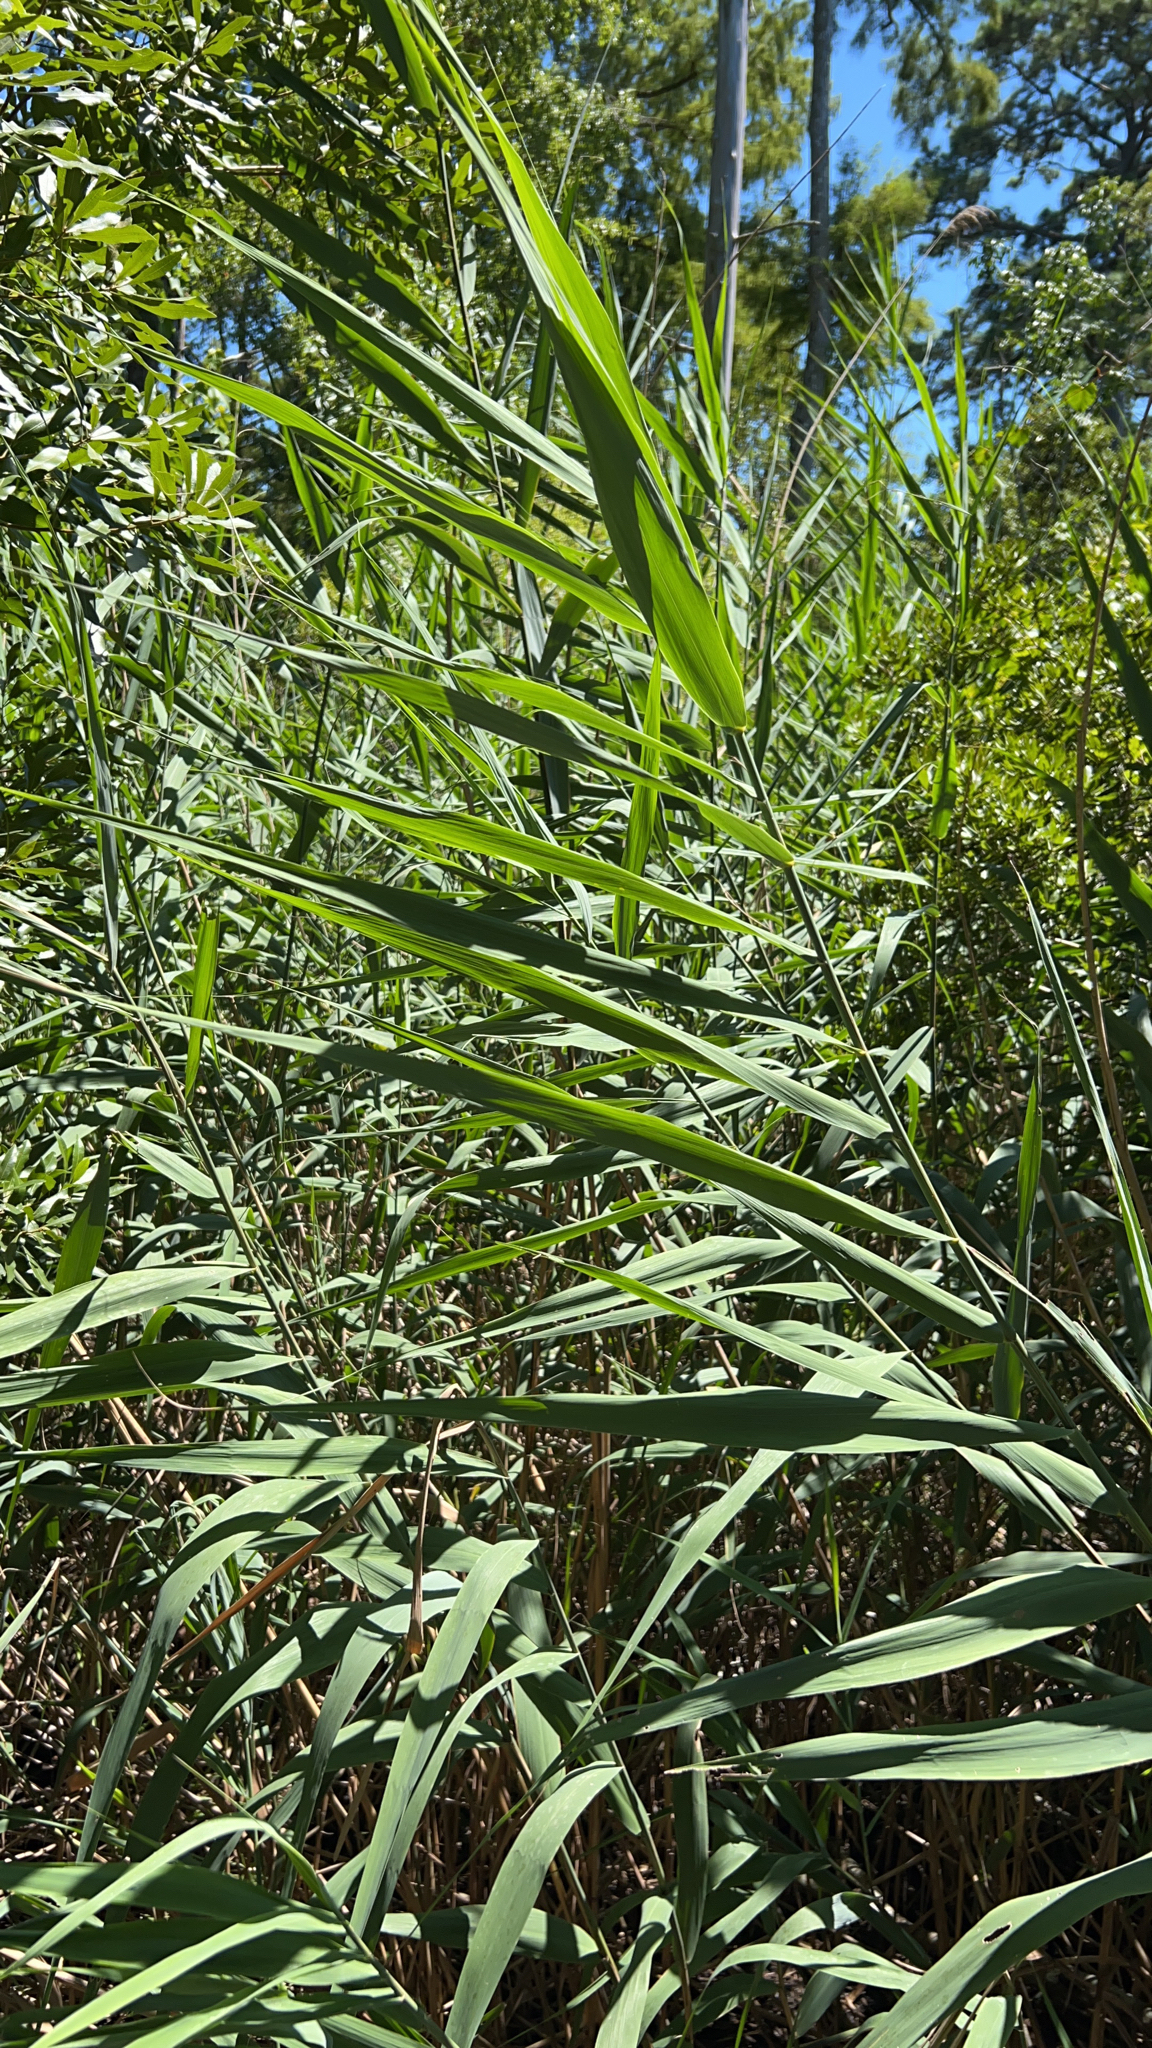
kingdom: Plantae
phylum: Tracheophyta
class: Liliopsida
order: Poales
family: Poaceae
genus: Phragmites
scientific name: Phragmites australis
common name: Common reed
